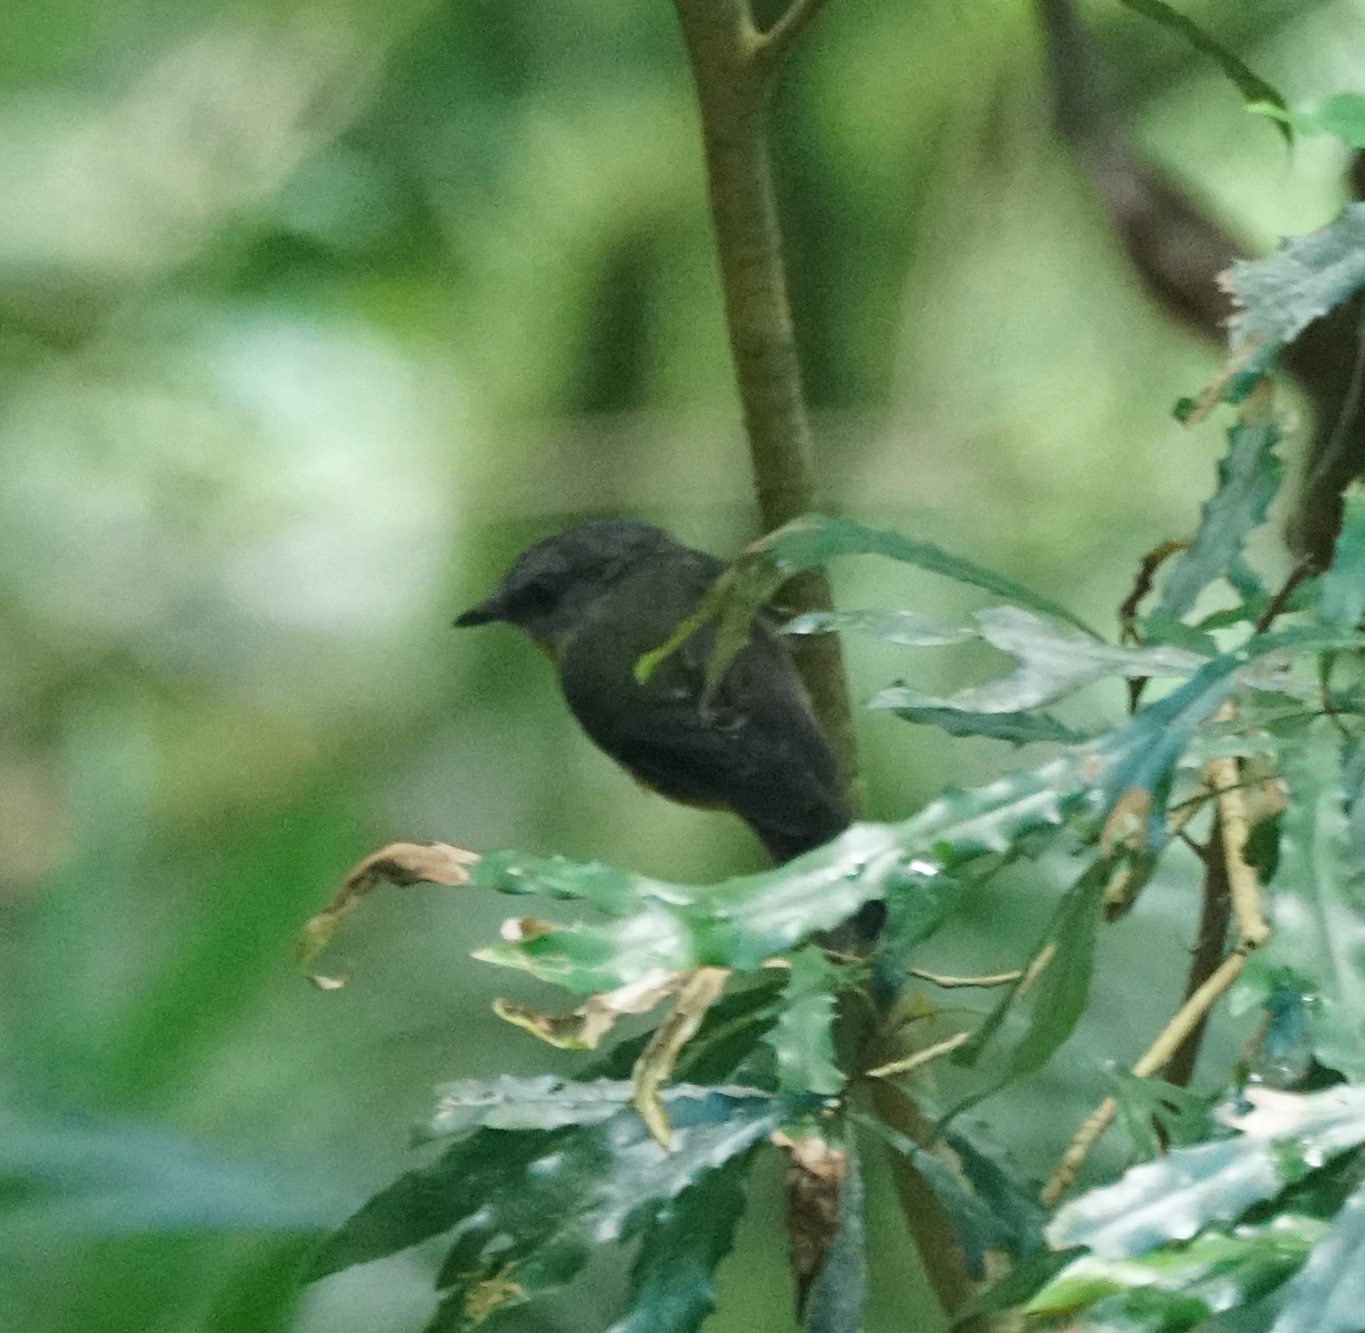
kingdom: Animalia
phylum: Chordata
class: Aves
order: Passeriformes
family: Petroicidae
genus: Eopsaltria
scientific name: Eopsaltria australis
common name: Eastern yellow robin
